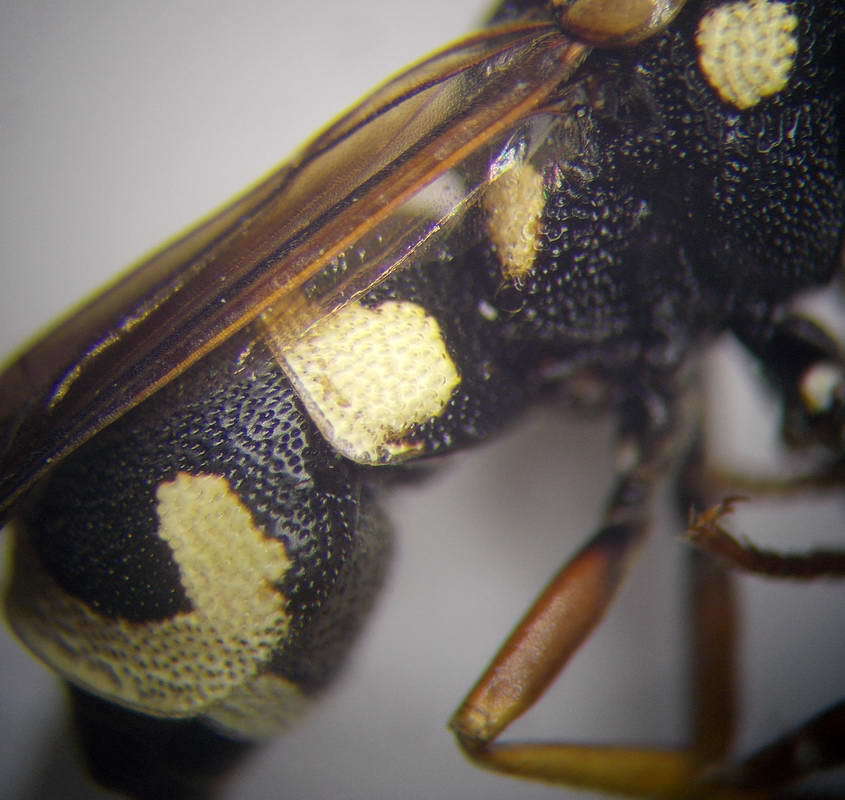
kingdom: Animalia
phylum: Arthropoda
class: Insecta
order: Hymenoptera
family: Eumenidae
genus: Parodontodynerus
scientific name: Parodontodynerus ephippium
